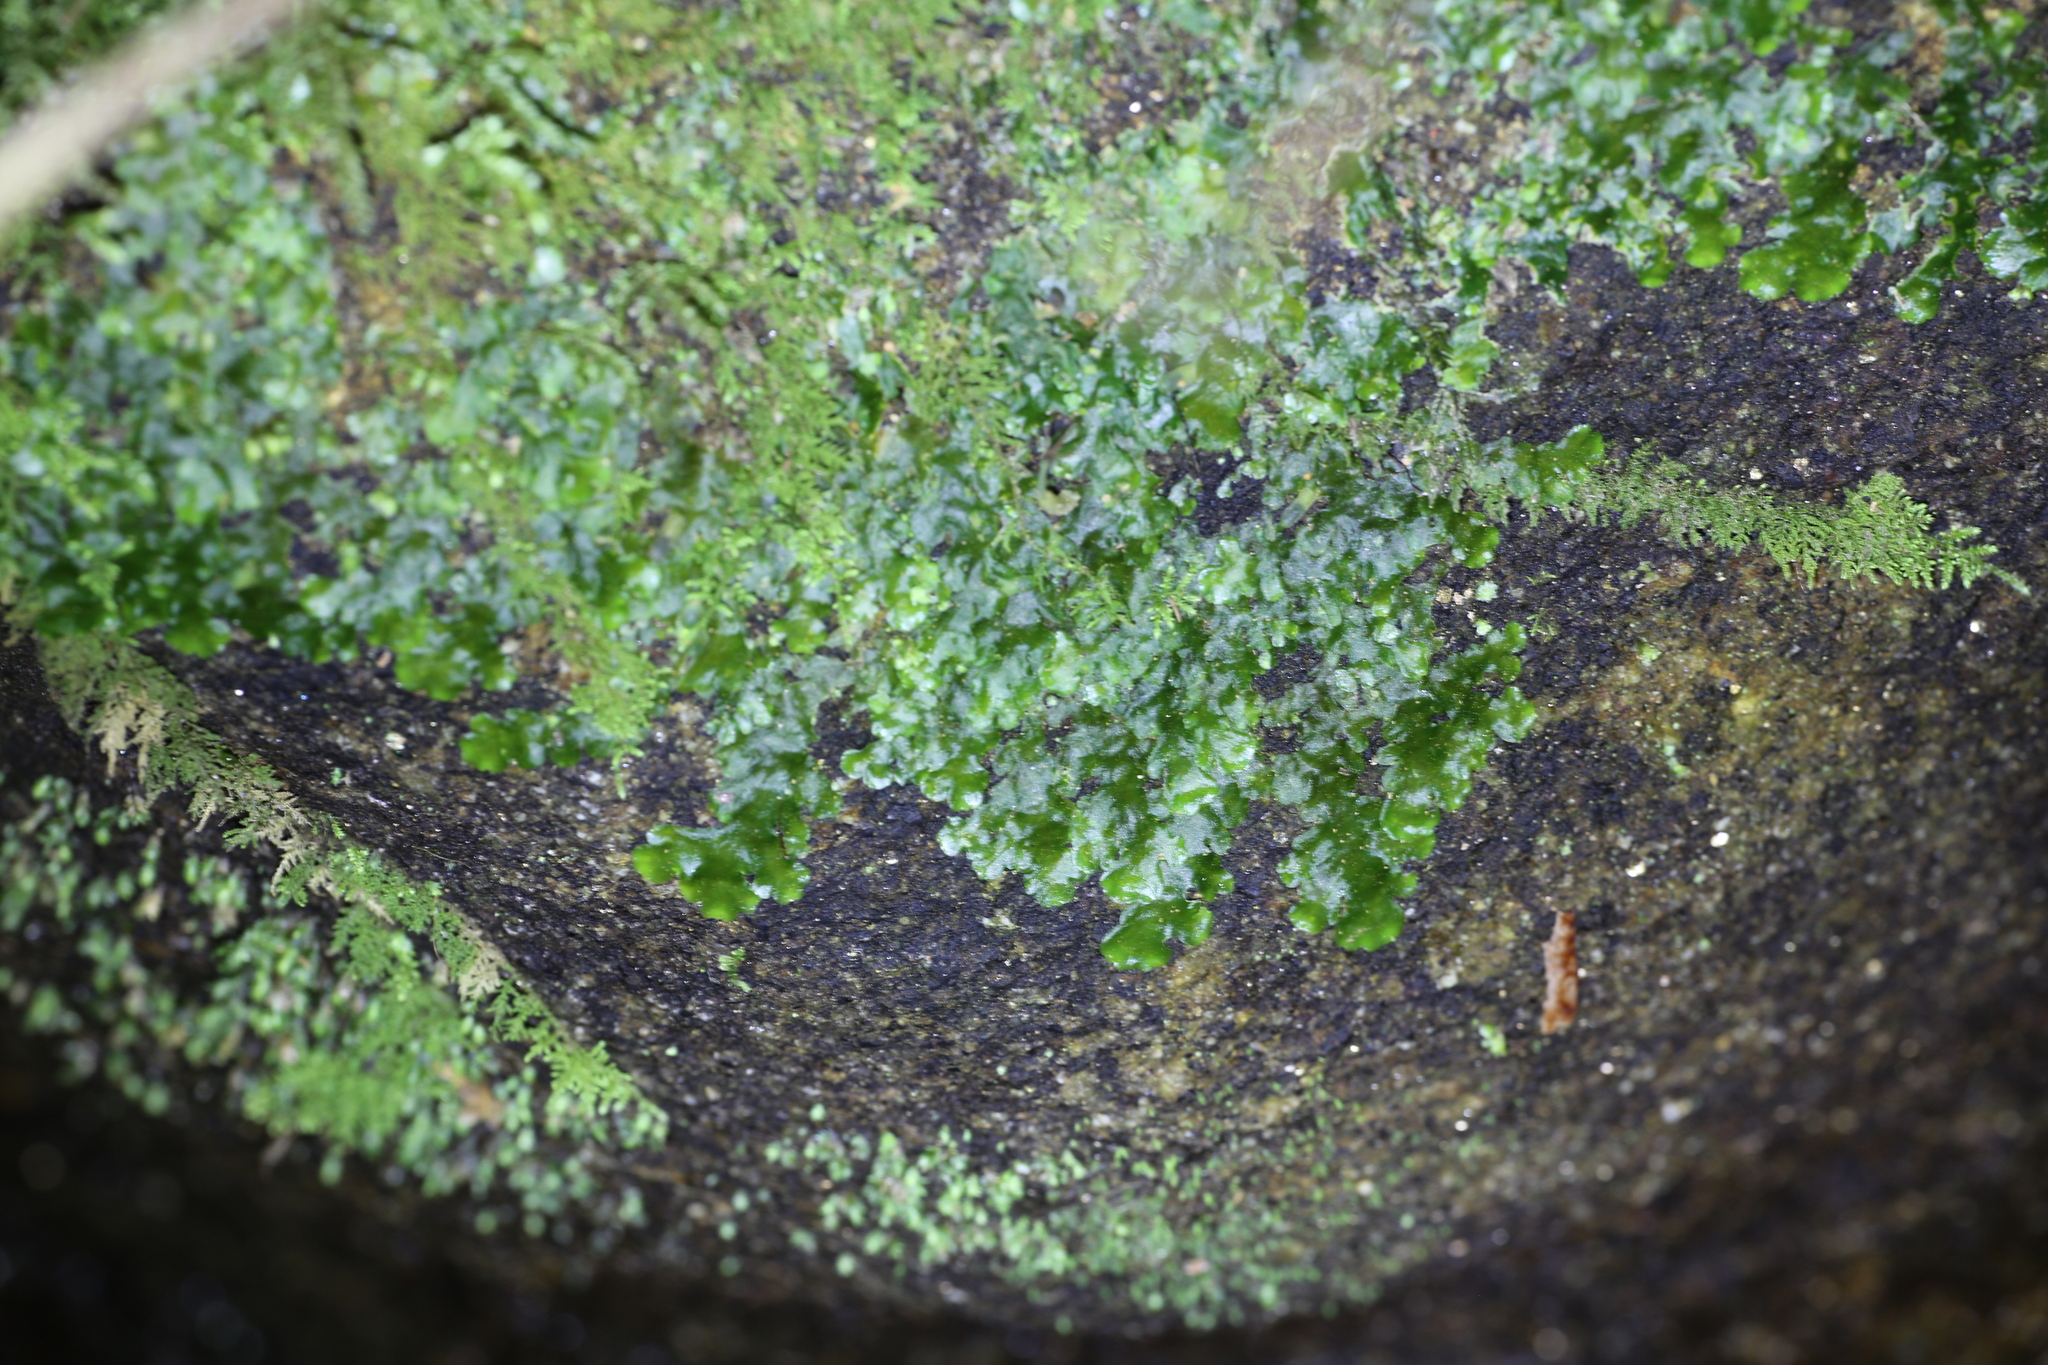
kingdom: Plantae
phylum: Marchantiophyta
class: Jungermanniopsida
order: Metzgeriales
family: Aneuraceae
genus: Lobatiriccardia
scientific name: Lobatiriccardia alterniloba
